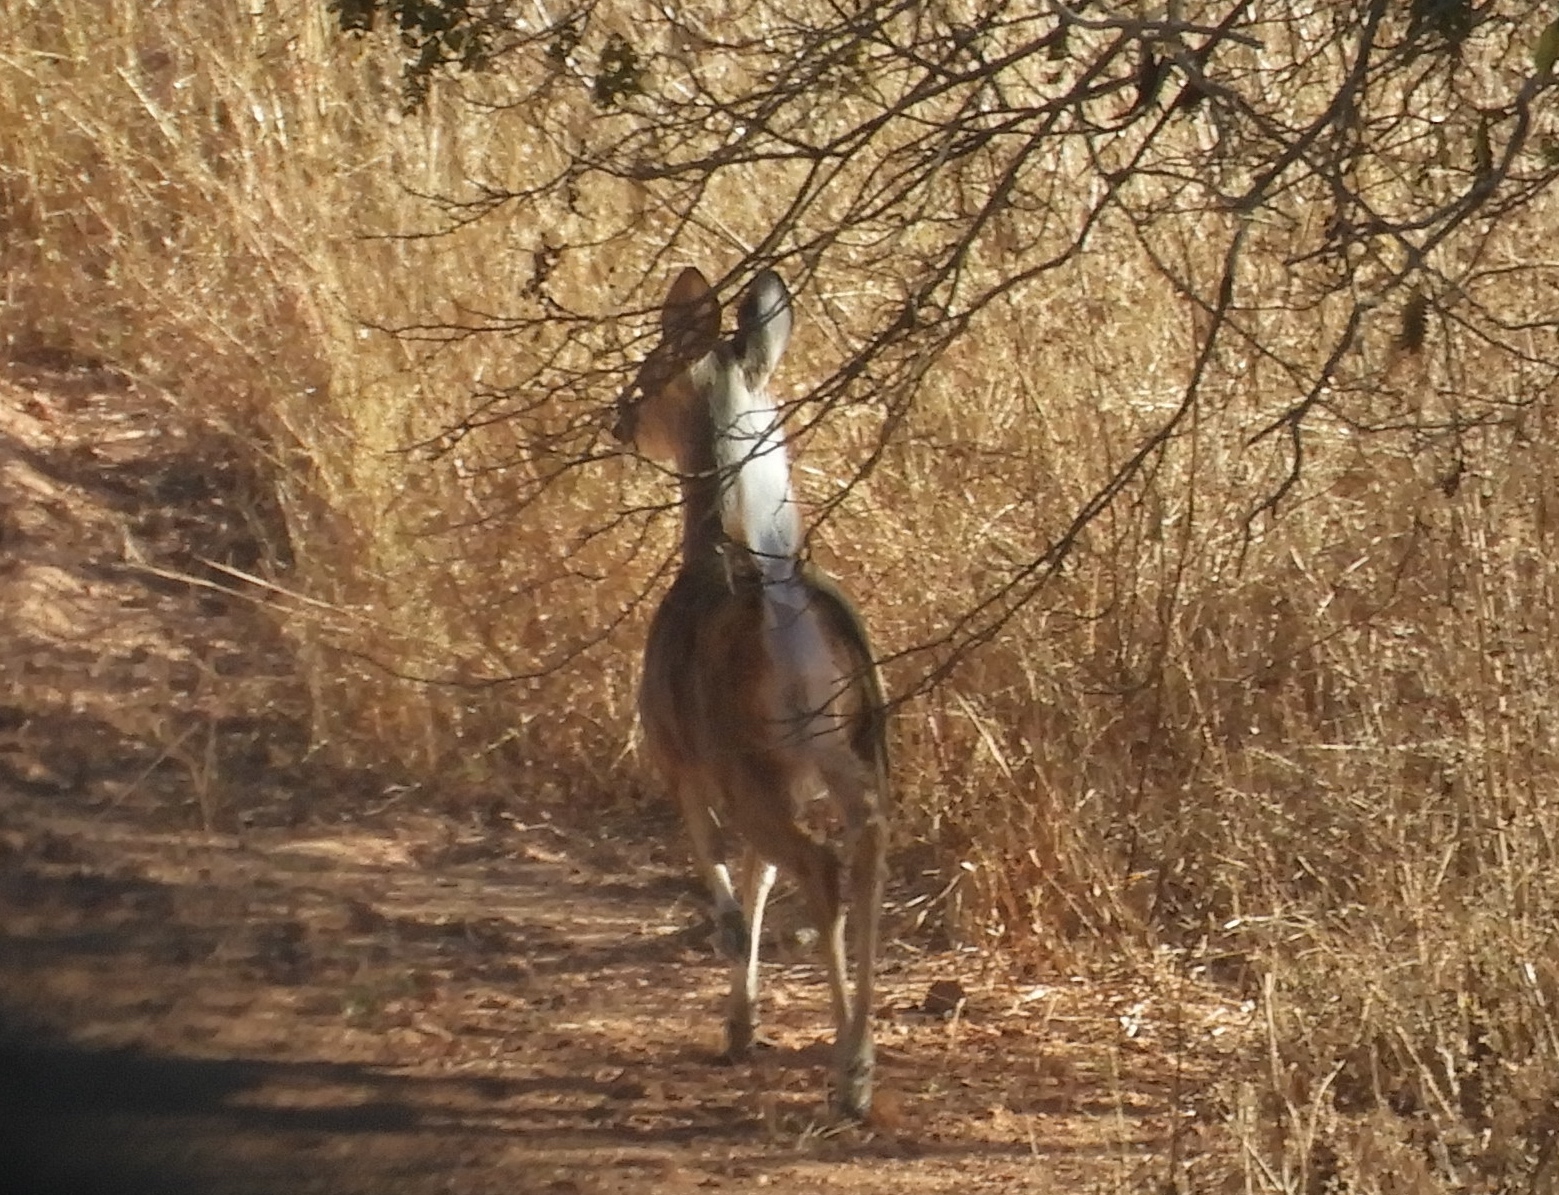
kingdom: Animalia
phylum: Chordata
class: Mammalia
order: Artiodactyla
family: Cervidae
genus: Odocoileus
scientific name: Odocoileus virginianus
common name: White-tailed deer
